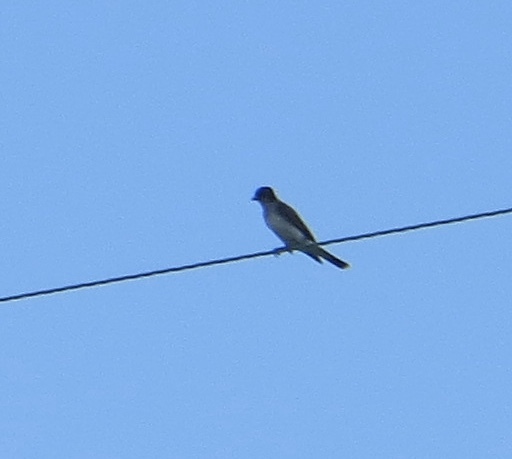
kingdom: Animalia
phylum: Chordata
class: Aves
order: Passeriformes
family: Tyrannidae
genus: Tyrannus
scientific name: Tyrannus tyrannus
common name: Eastern kingbird
